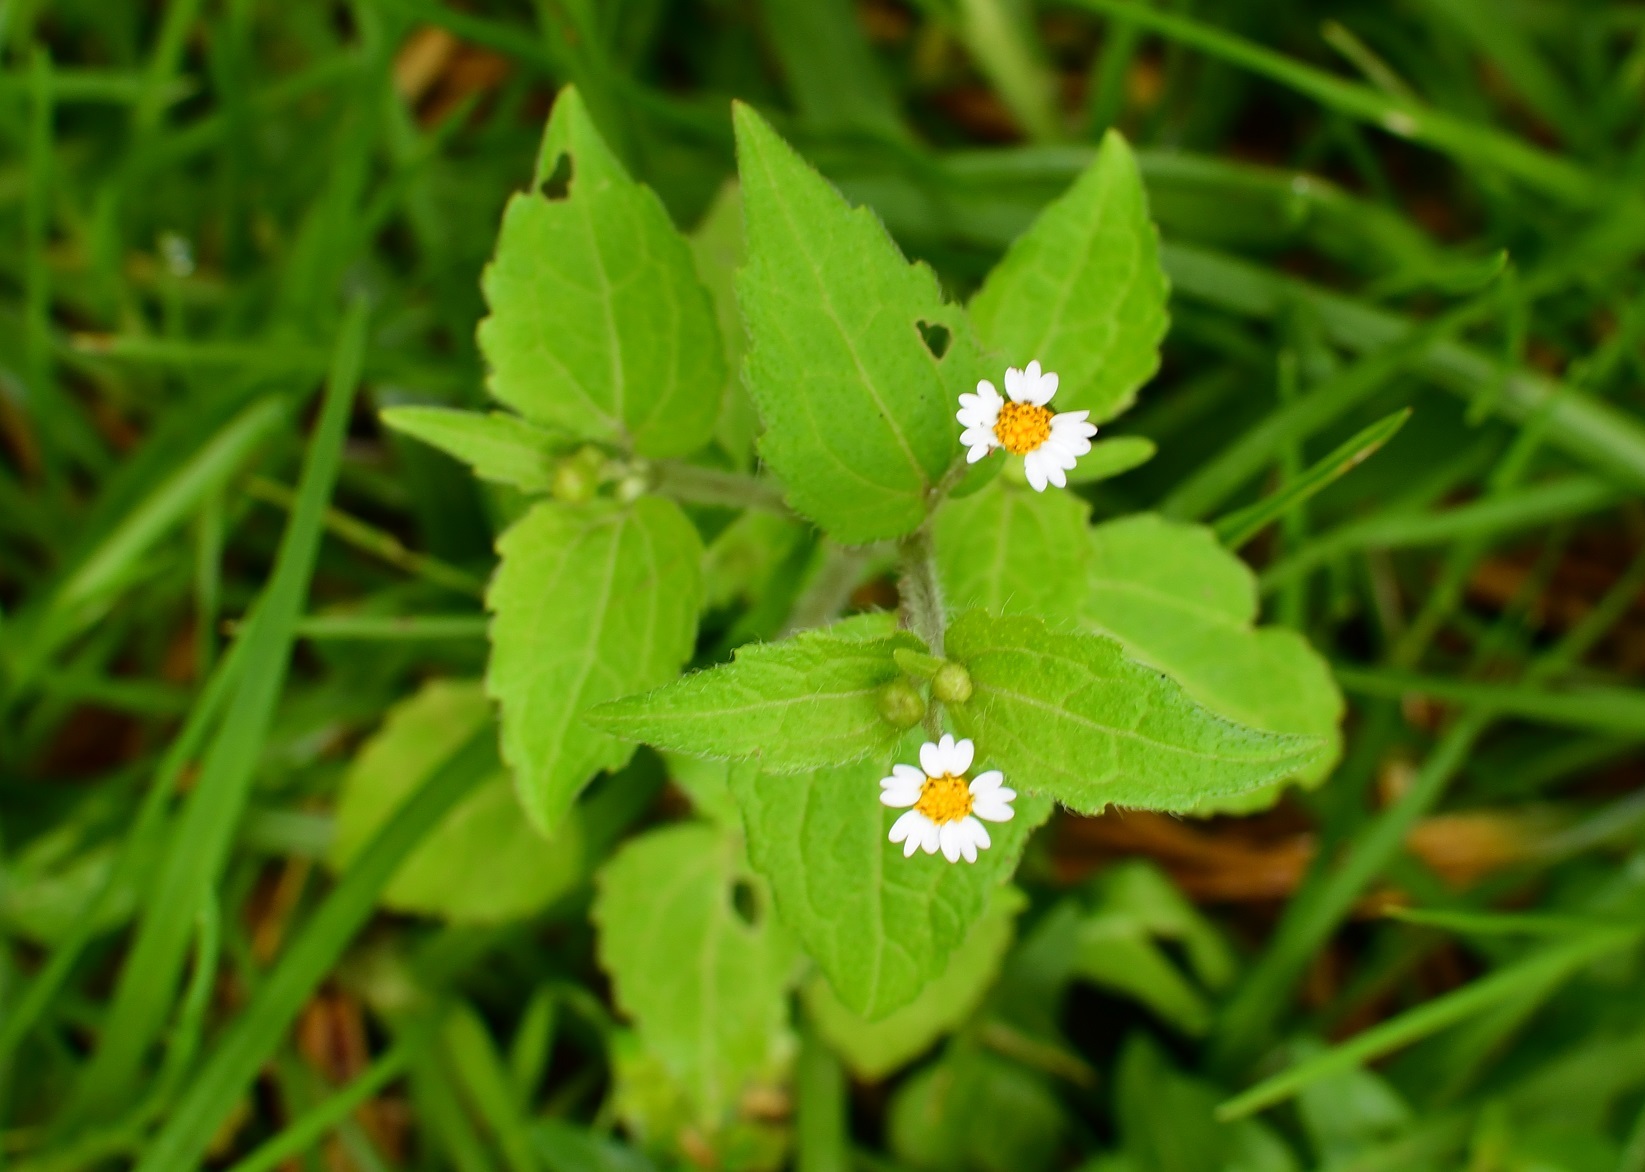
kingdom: Plantae
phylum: Tracheophyta
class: Magnoliopsida
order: Asterales
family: Asteraceae
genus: Galinsoga
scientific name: Galinsoga quadriradiata
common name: Shaggy soldier
